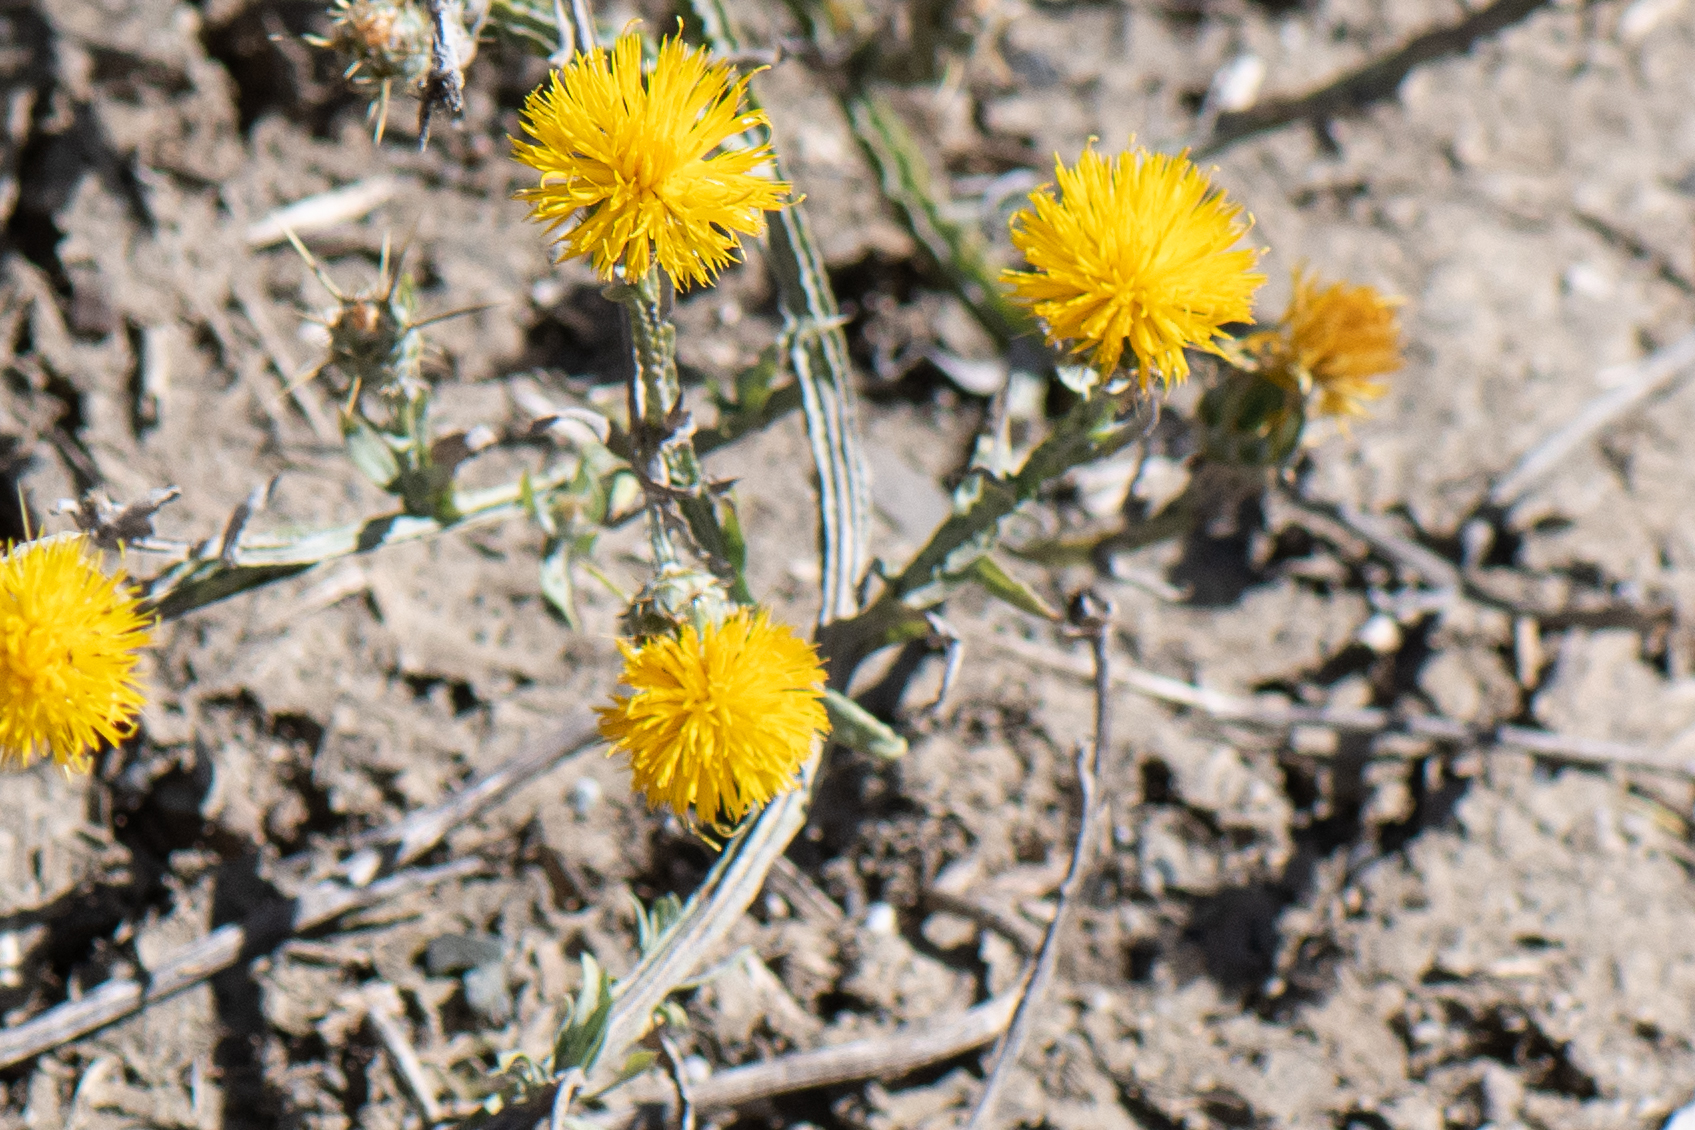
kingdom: Plantae
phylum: Tracheophyta
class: Magnoliopsida
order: Asterales
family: Asteraceae
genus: Centaurea
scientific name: Centaurea solstitialis
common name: Yellow star-thistle
